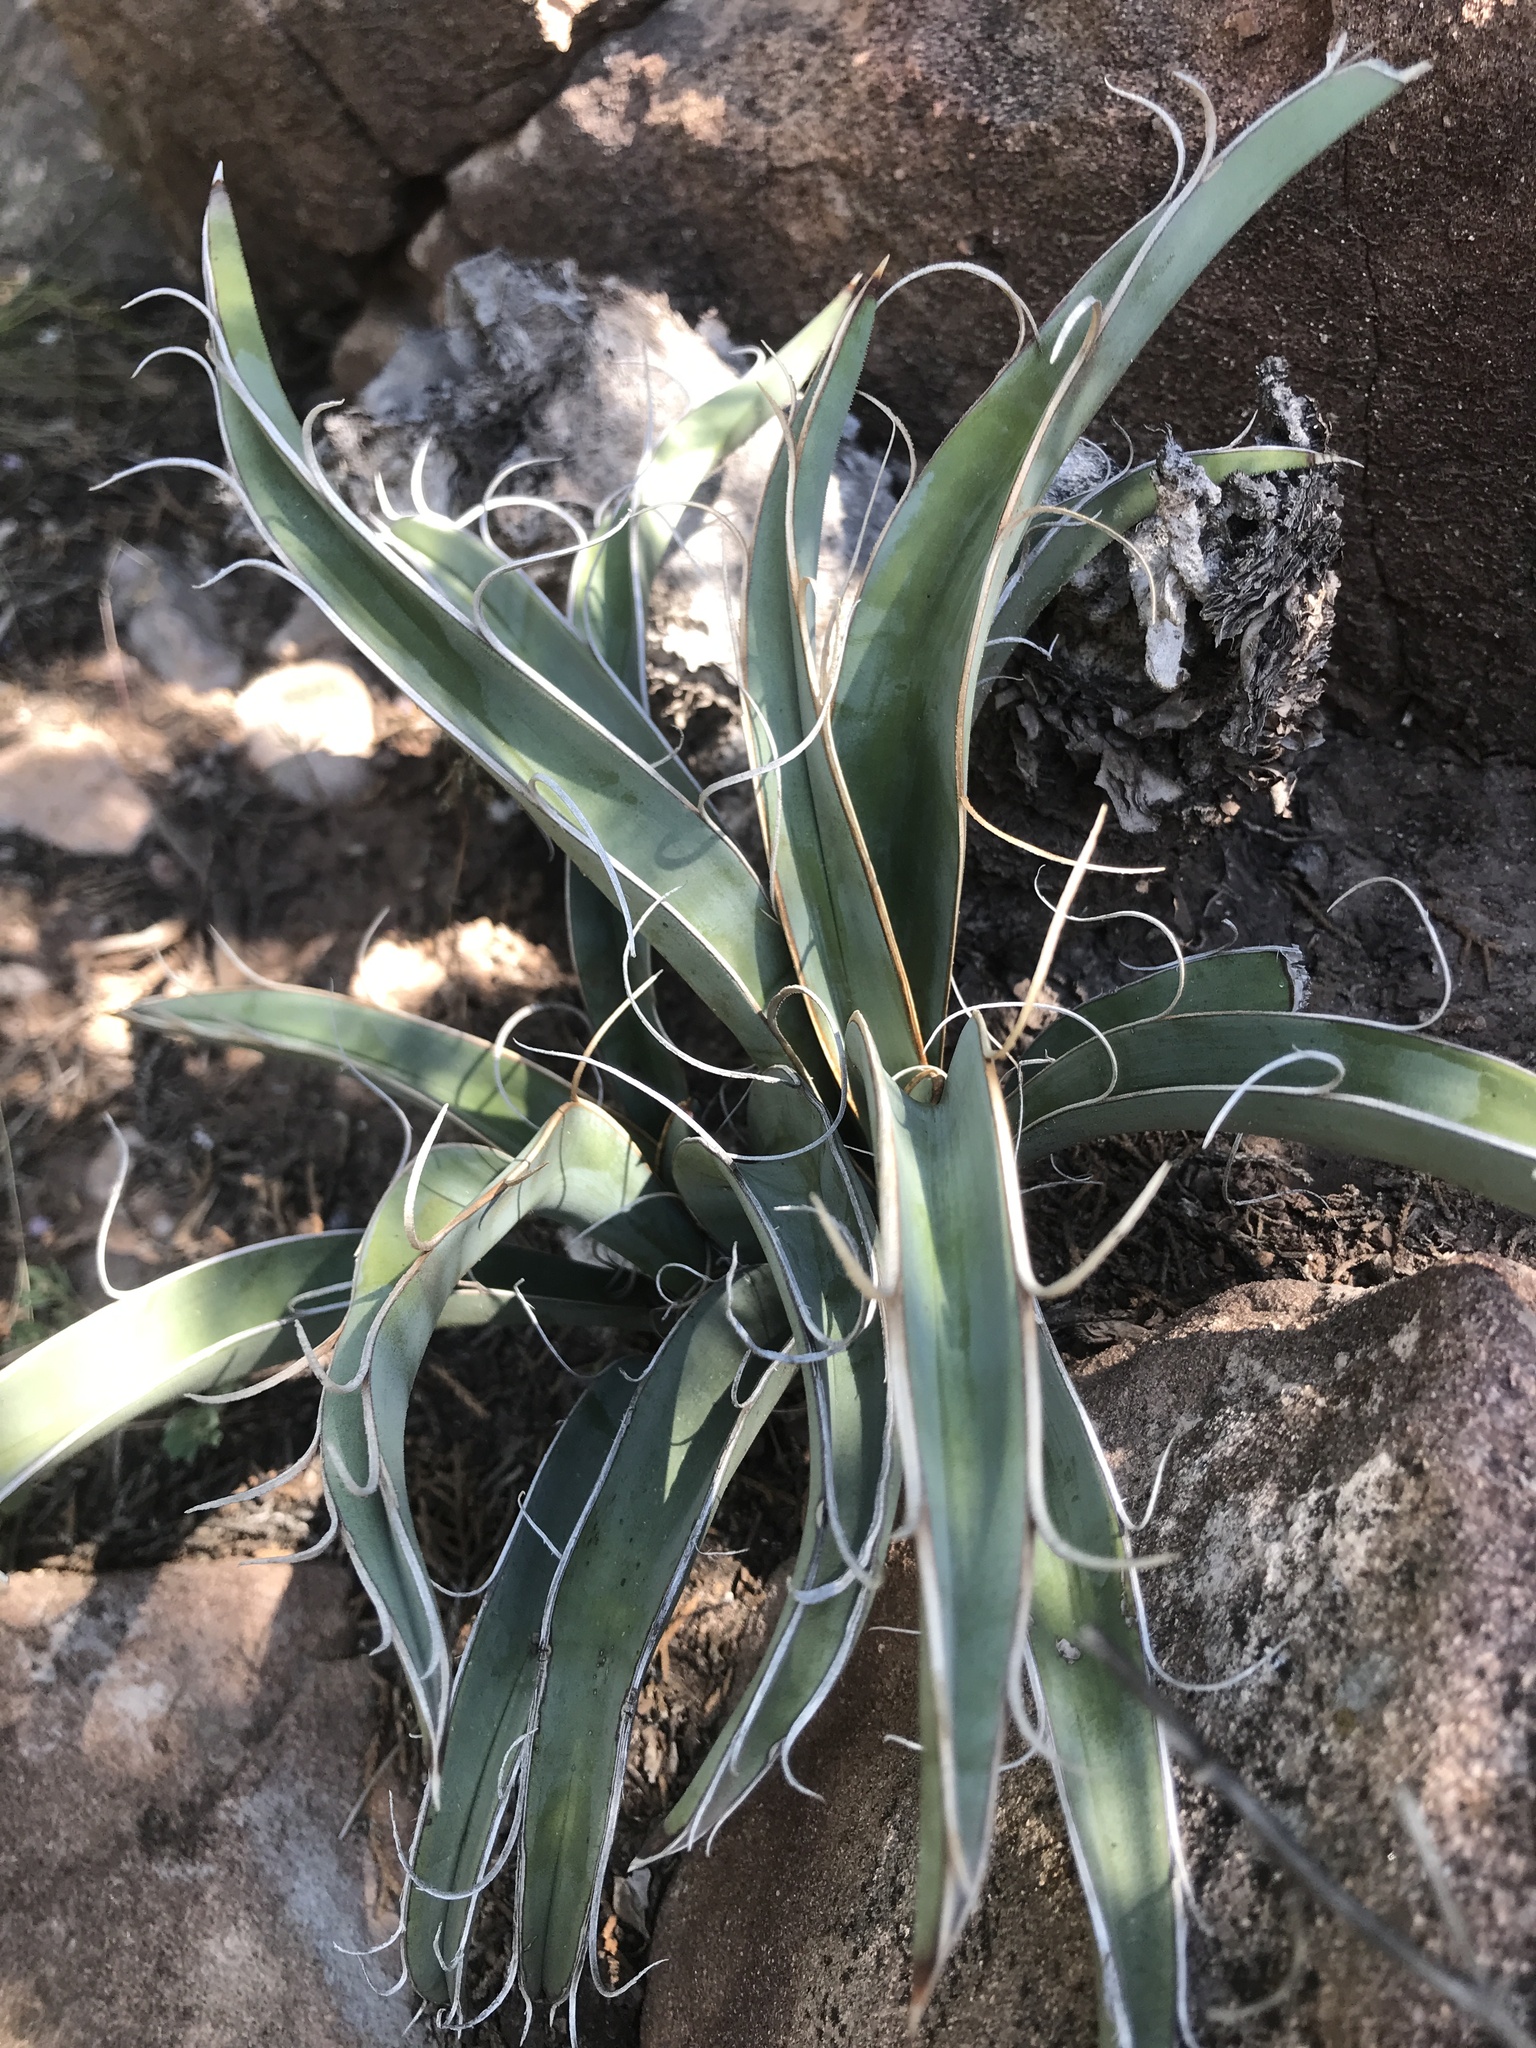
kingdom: Plantae
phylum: Tracheophyta
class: Liliopsida
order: Asparagales
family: Asparagaceae
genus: Yucca
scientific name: Yucca baccata
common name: Banana yucca
